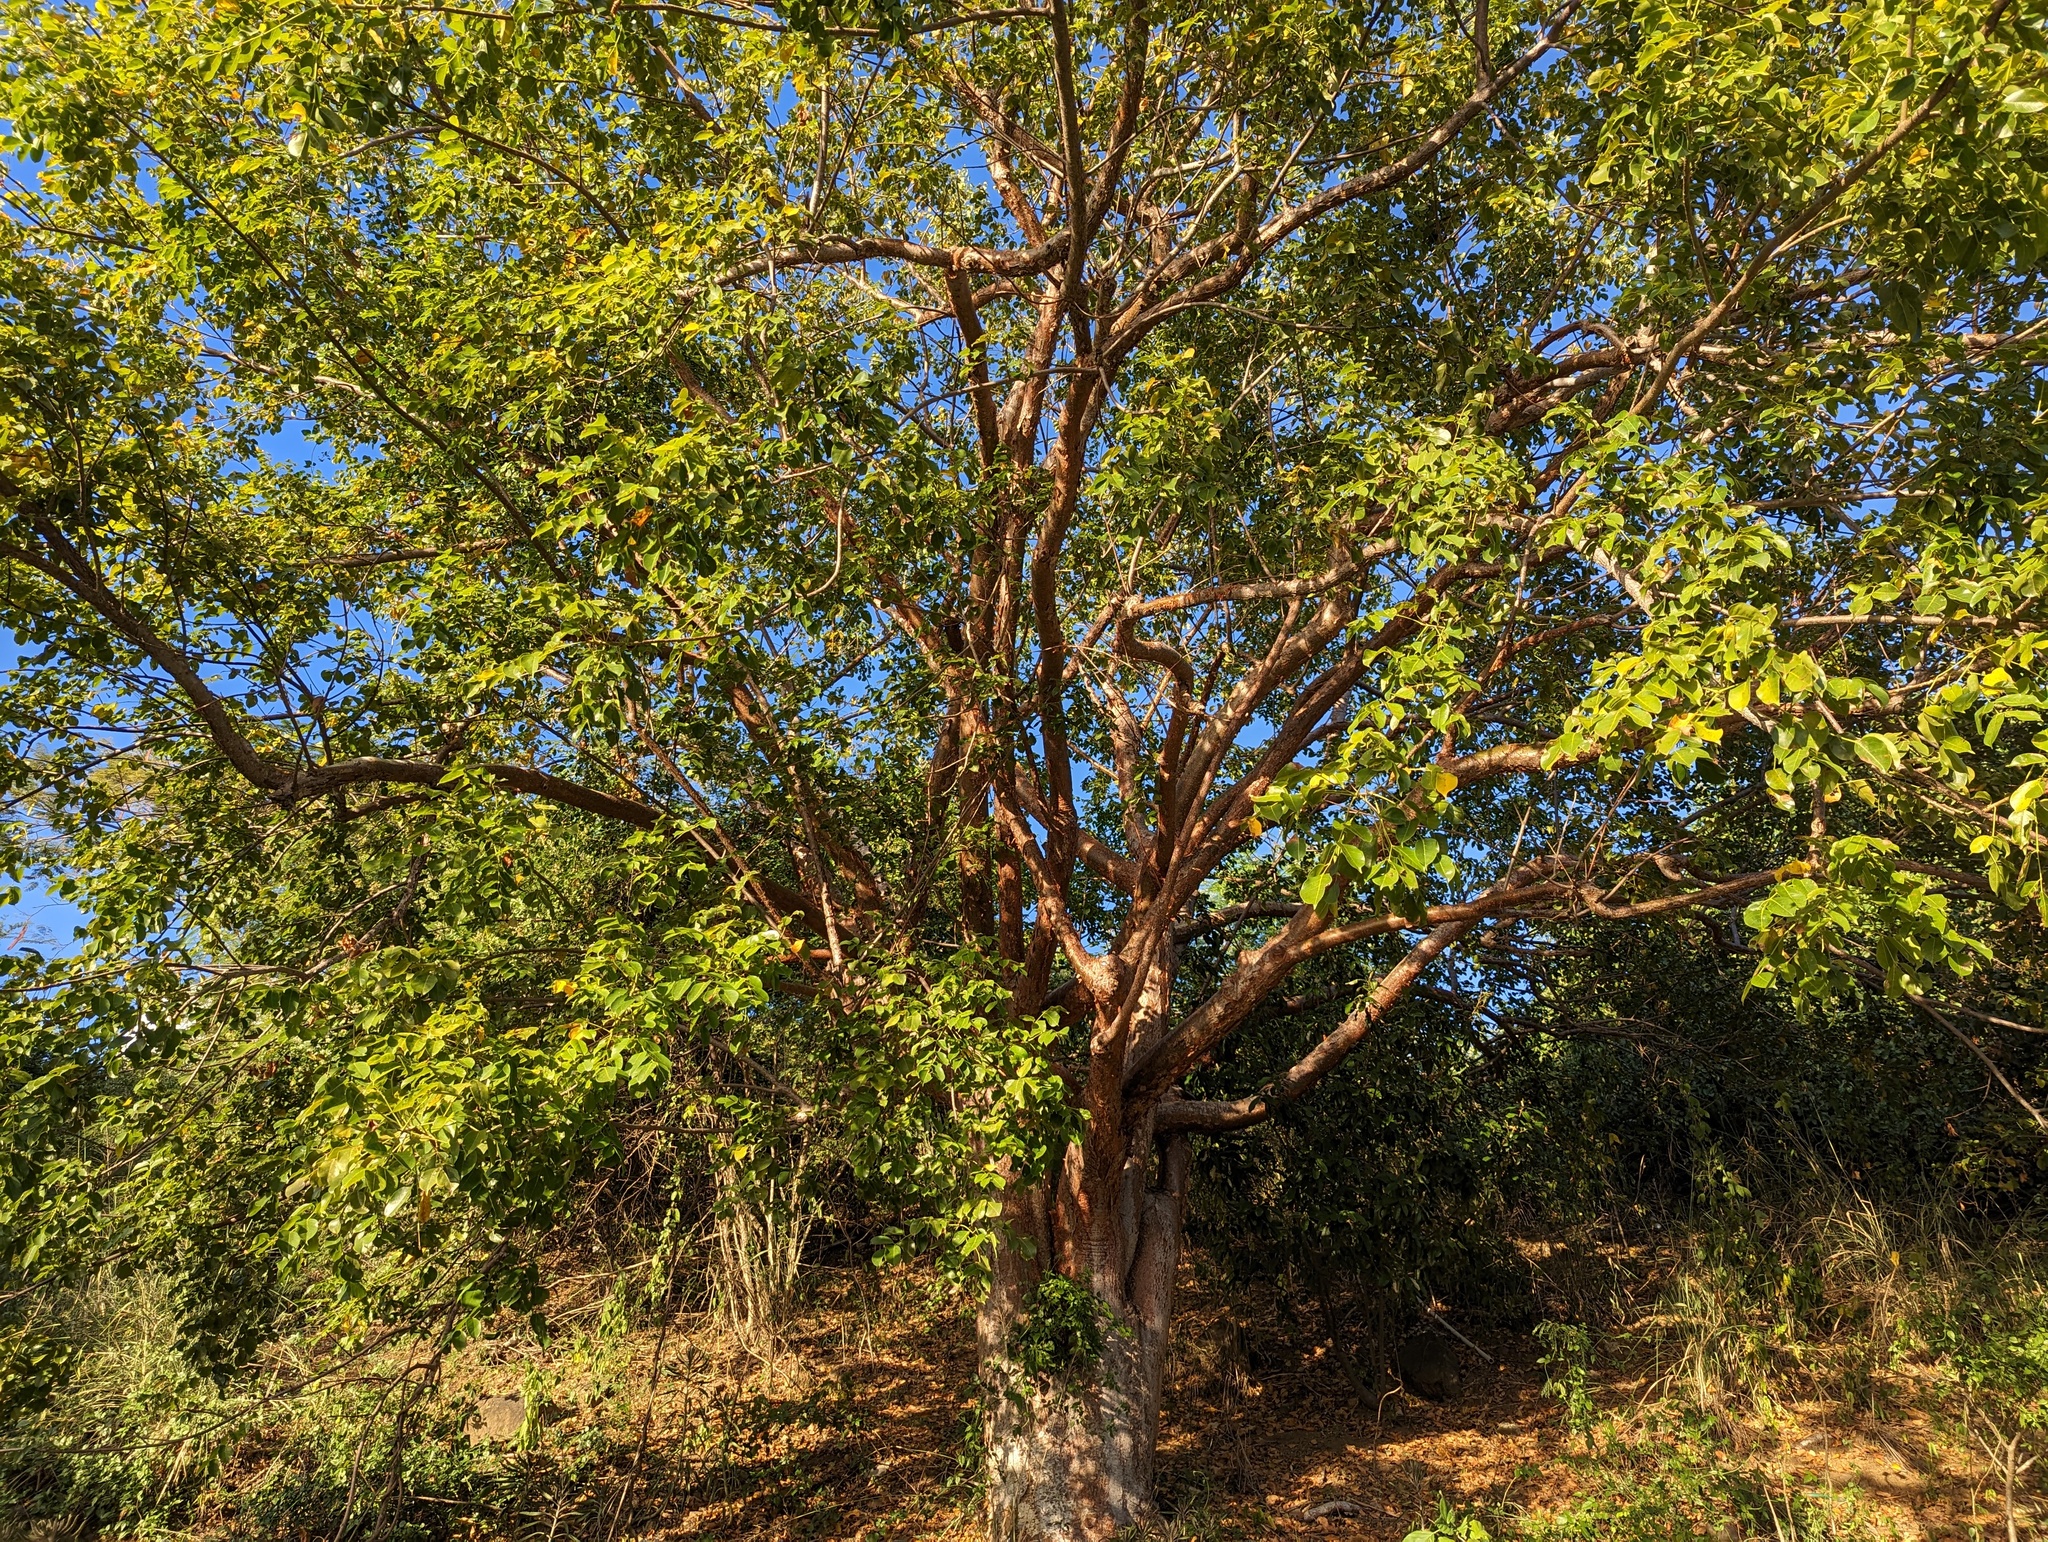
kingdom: Plantae
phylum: Tracheophyta
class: Magnoliopsida
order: Sapindales
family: Burseraceae
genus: Bursera
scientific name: Bursera simaruba
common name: Turpentine tree
